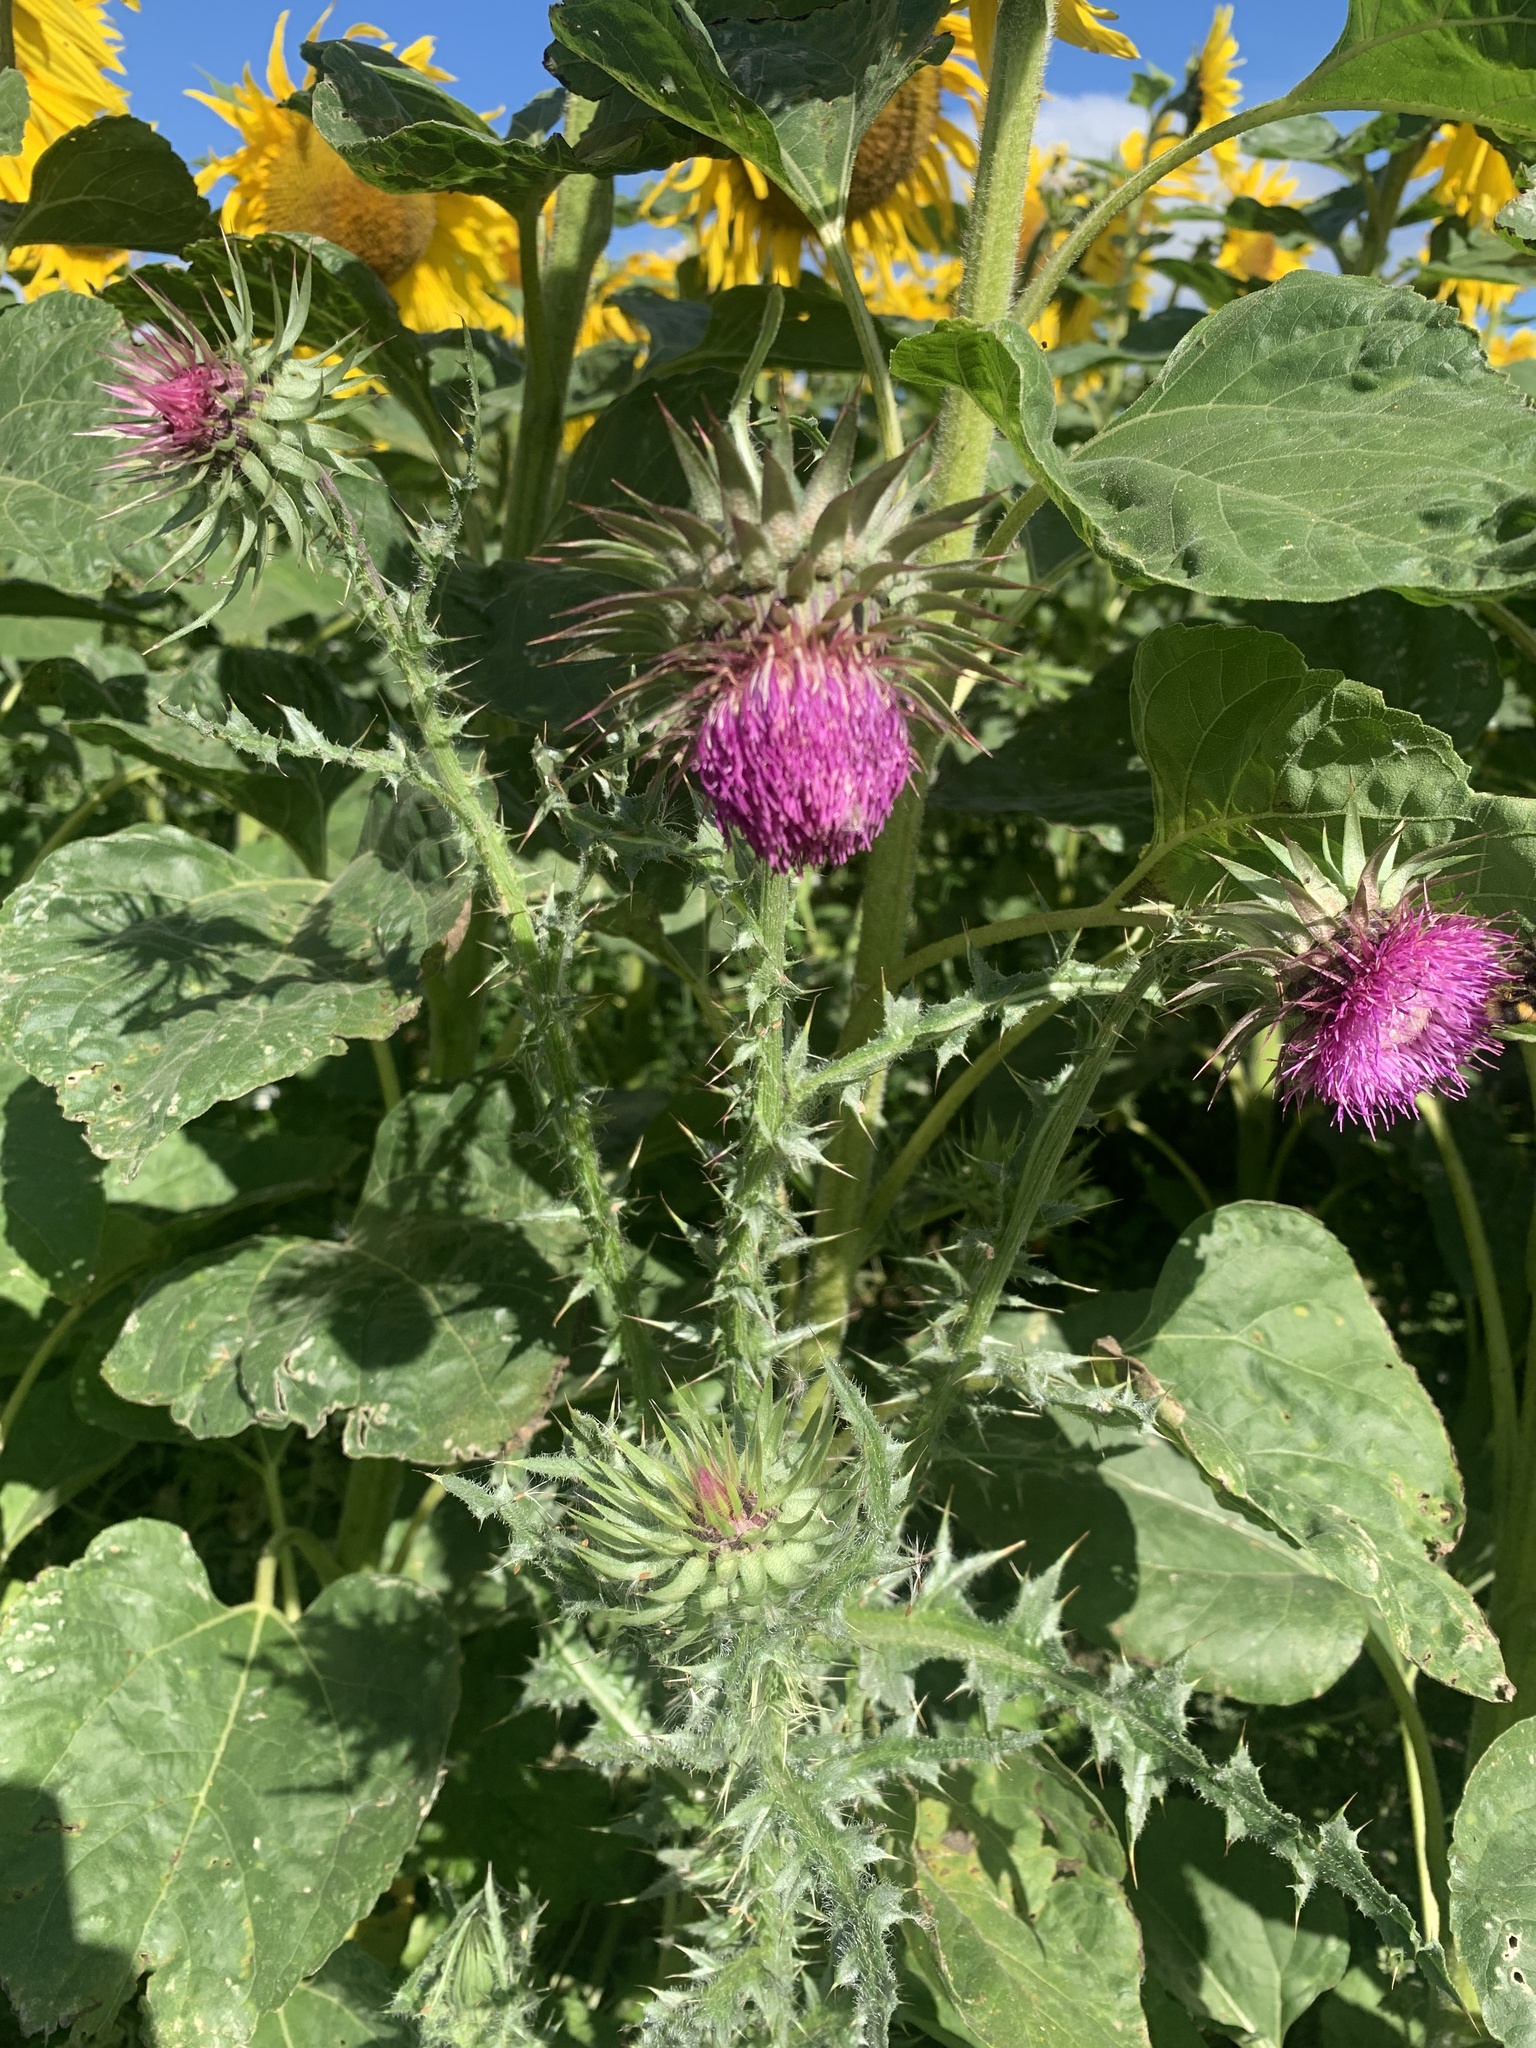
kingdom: Plantae
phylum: Tracheophyta
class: Magnoliopsida
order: Asterales
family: Asteraceae
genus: Carduus
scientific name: Carduus nutans
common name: Musk thistle
